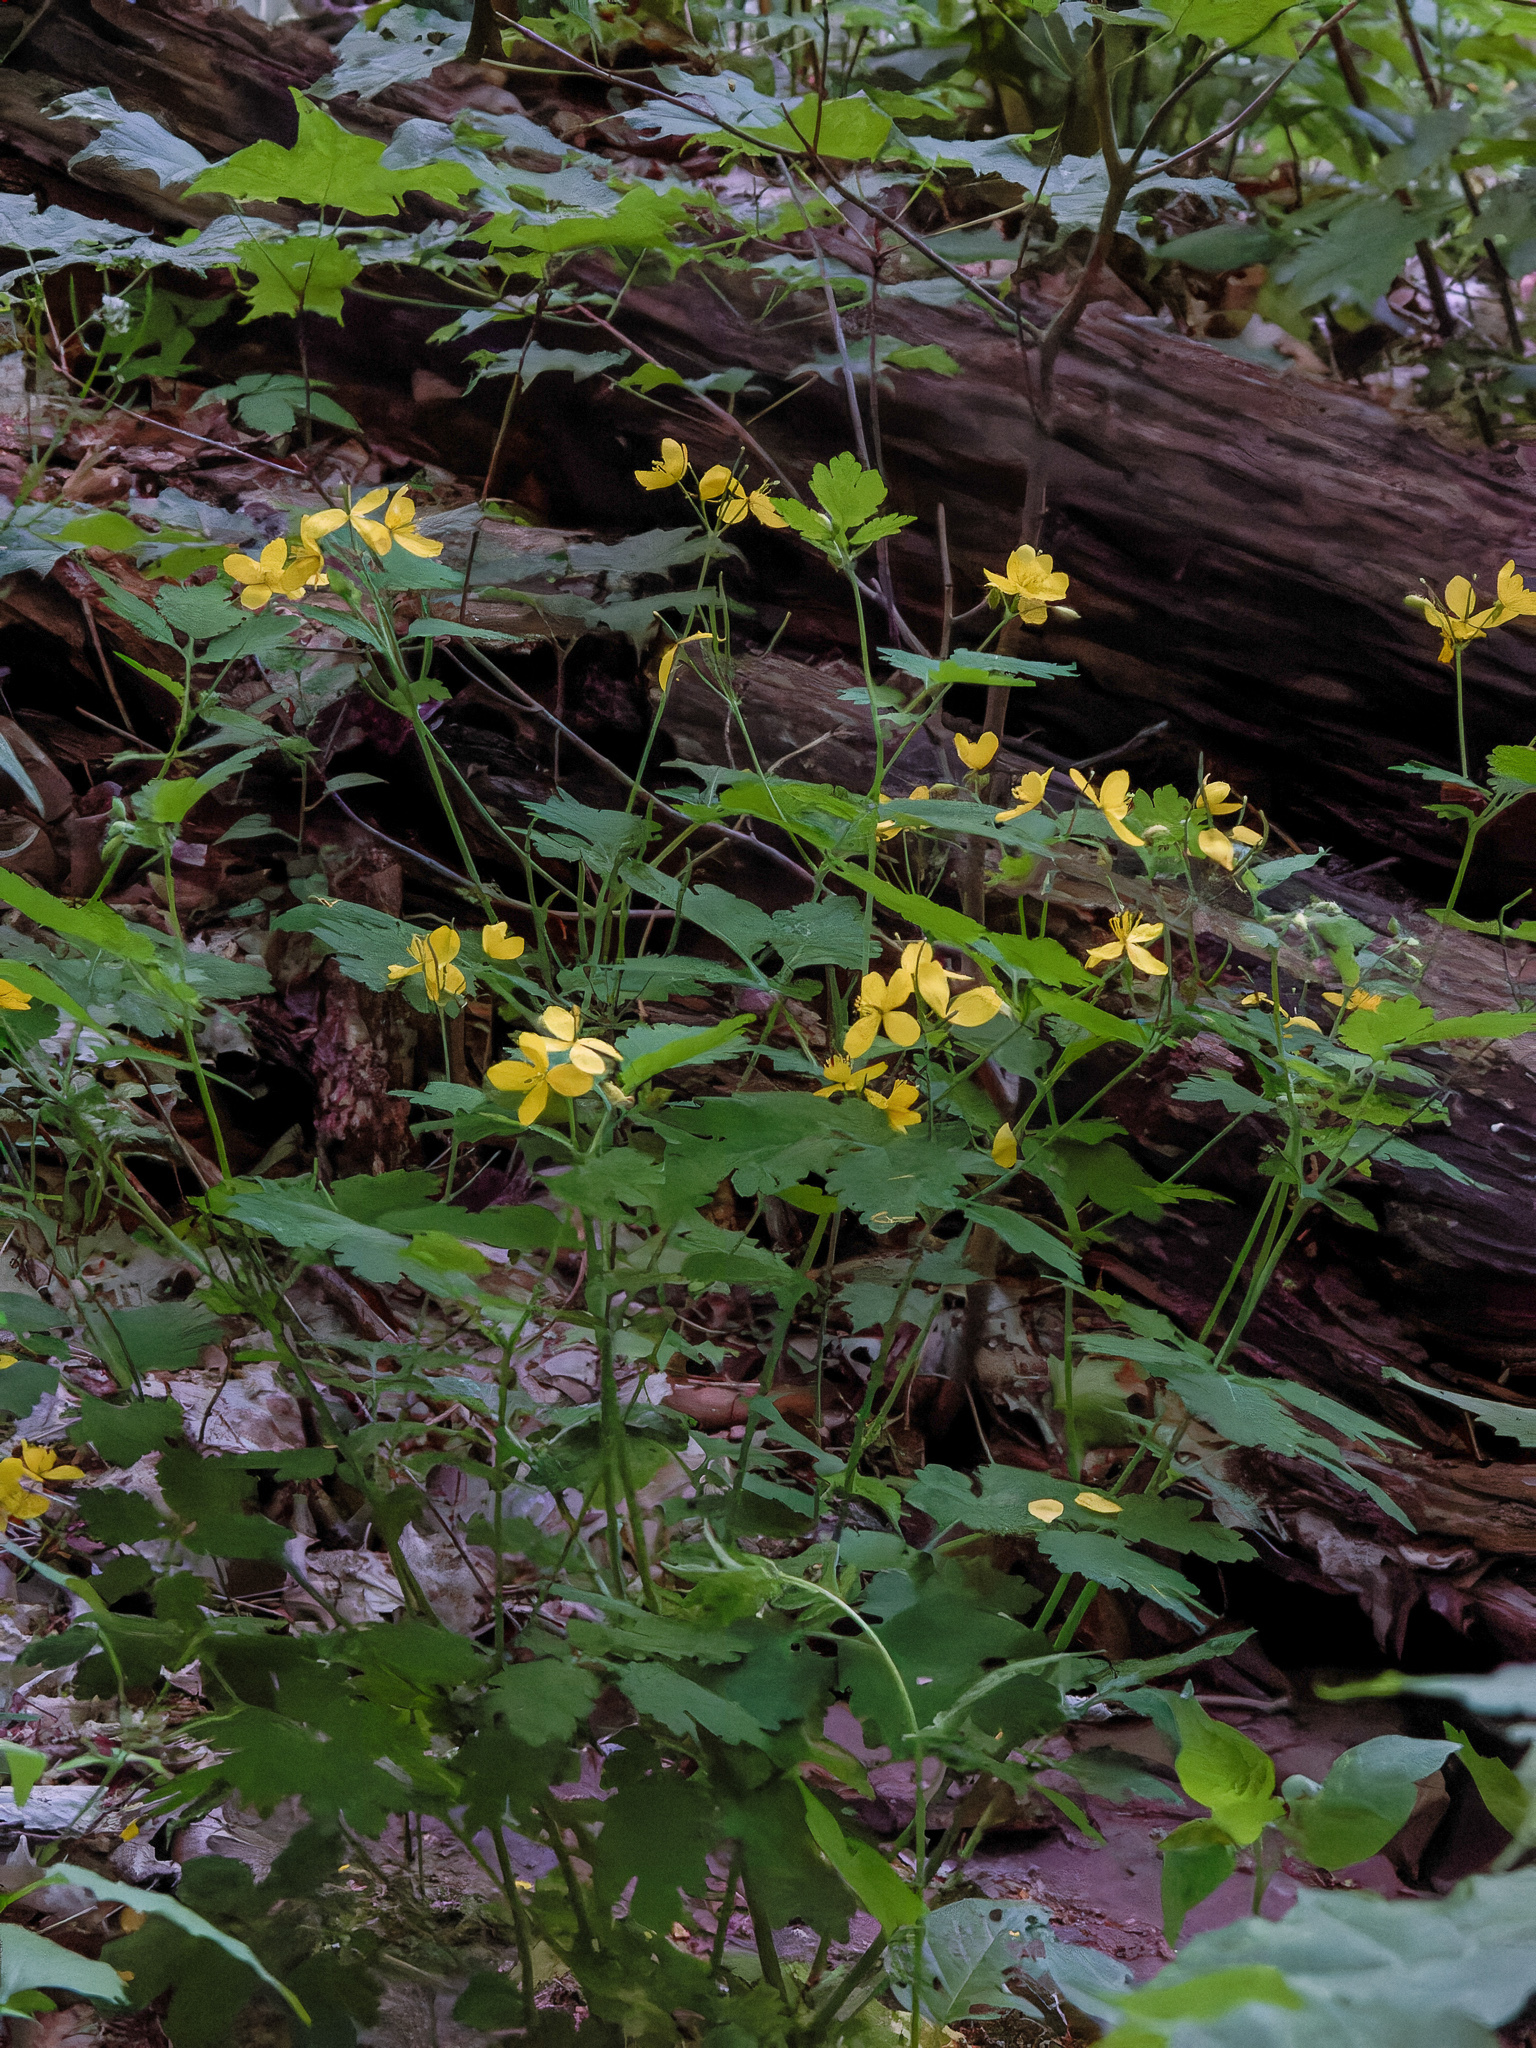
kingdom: Plantae
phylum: Tracheophyta
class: Magnoliopsida
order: Ranunculales
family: Papaveraceae
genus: Chelidonium
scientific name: Chelidonium majus
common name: Greater celandine
